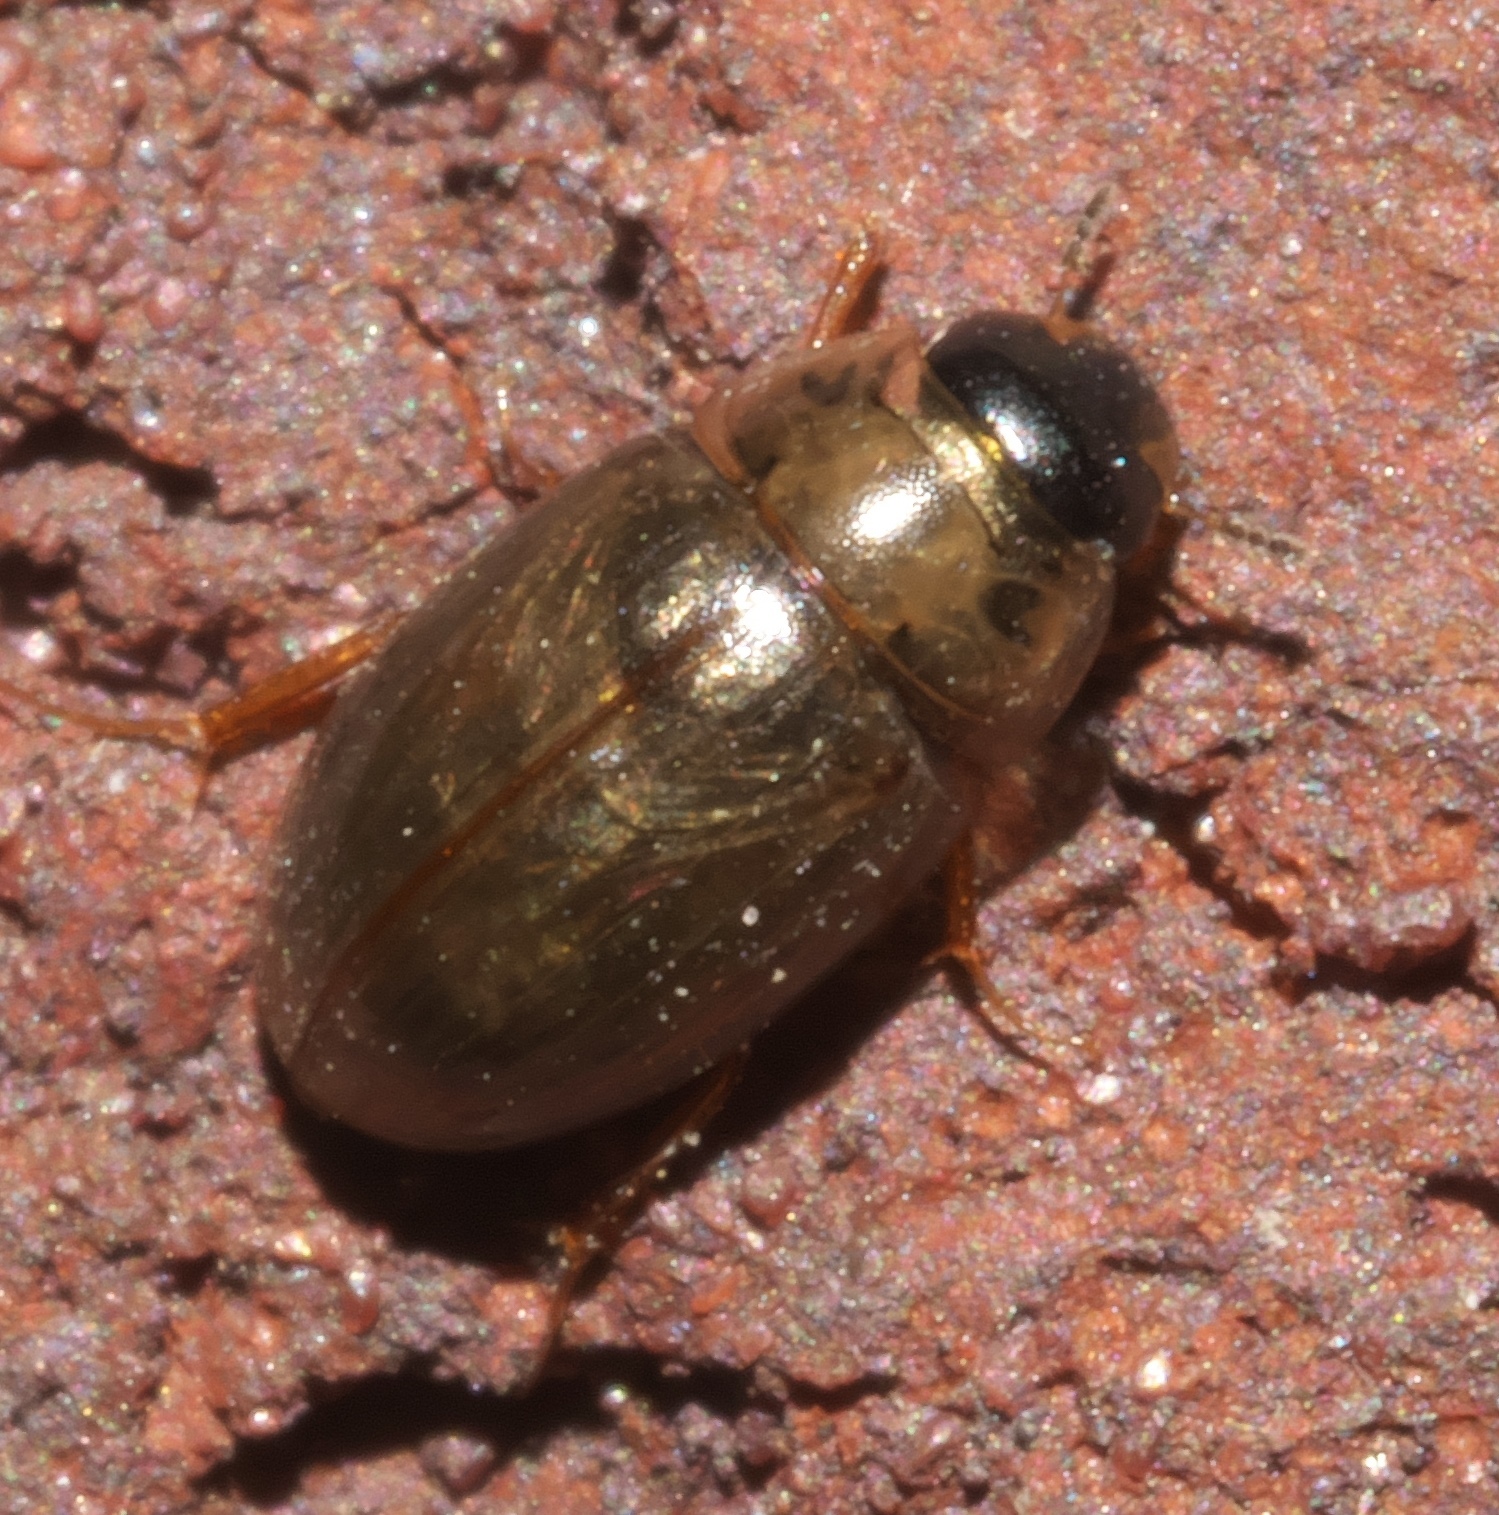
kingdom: Animalia
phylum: Arthropoda
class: Insecta
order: Coleoptera
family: Hydrophilidae
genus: Enochrus
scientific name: Enochrus
